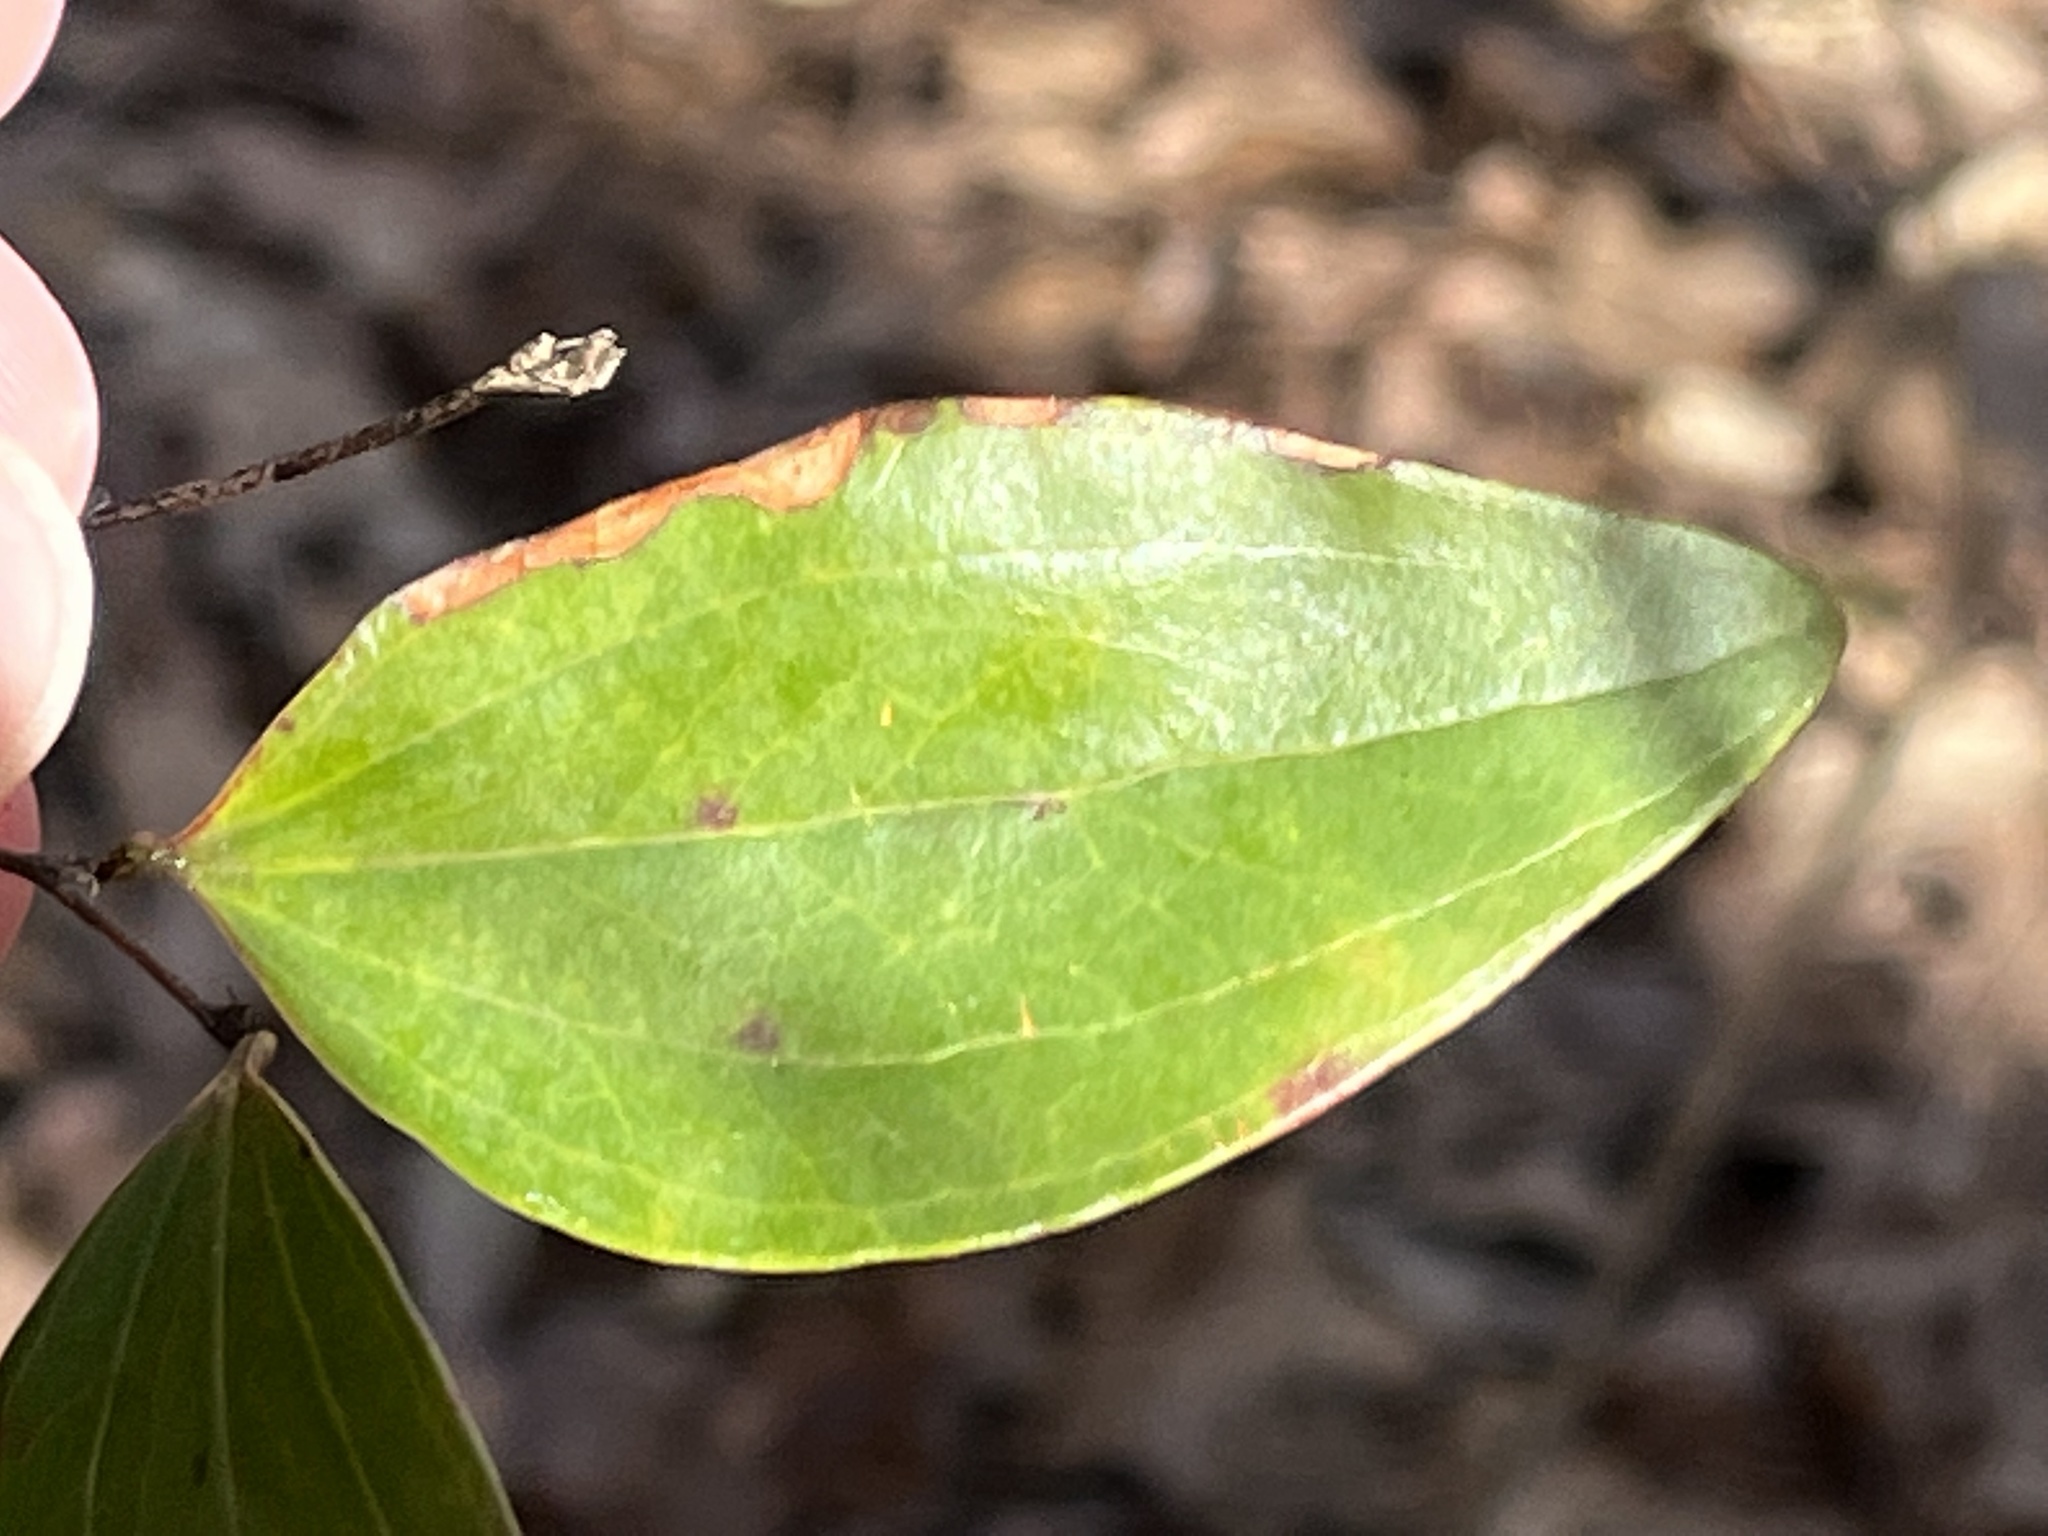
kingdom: Plantae
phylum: Tracheophyta
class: Liliopsida
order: Liliales
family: Smilacaceae
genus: Smilax
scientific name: Smilax glauca
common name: Cat greenbrier
